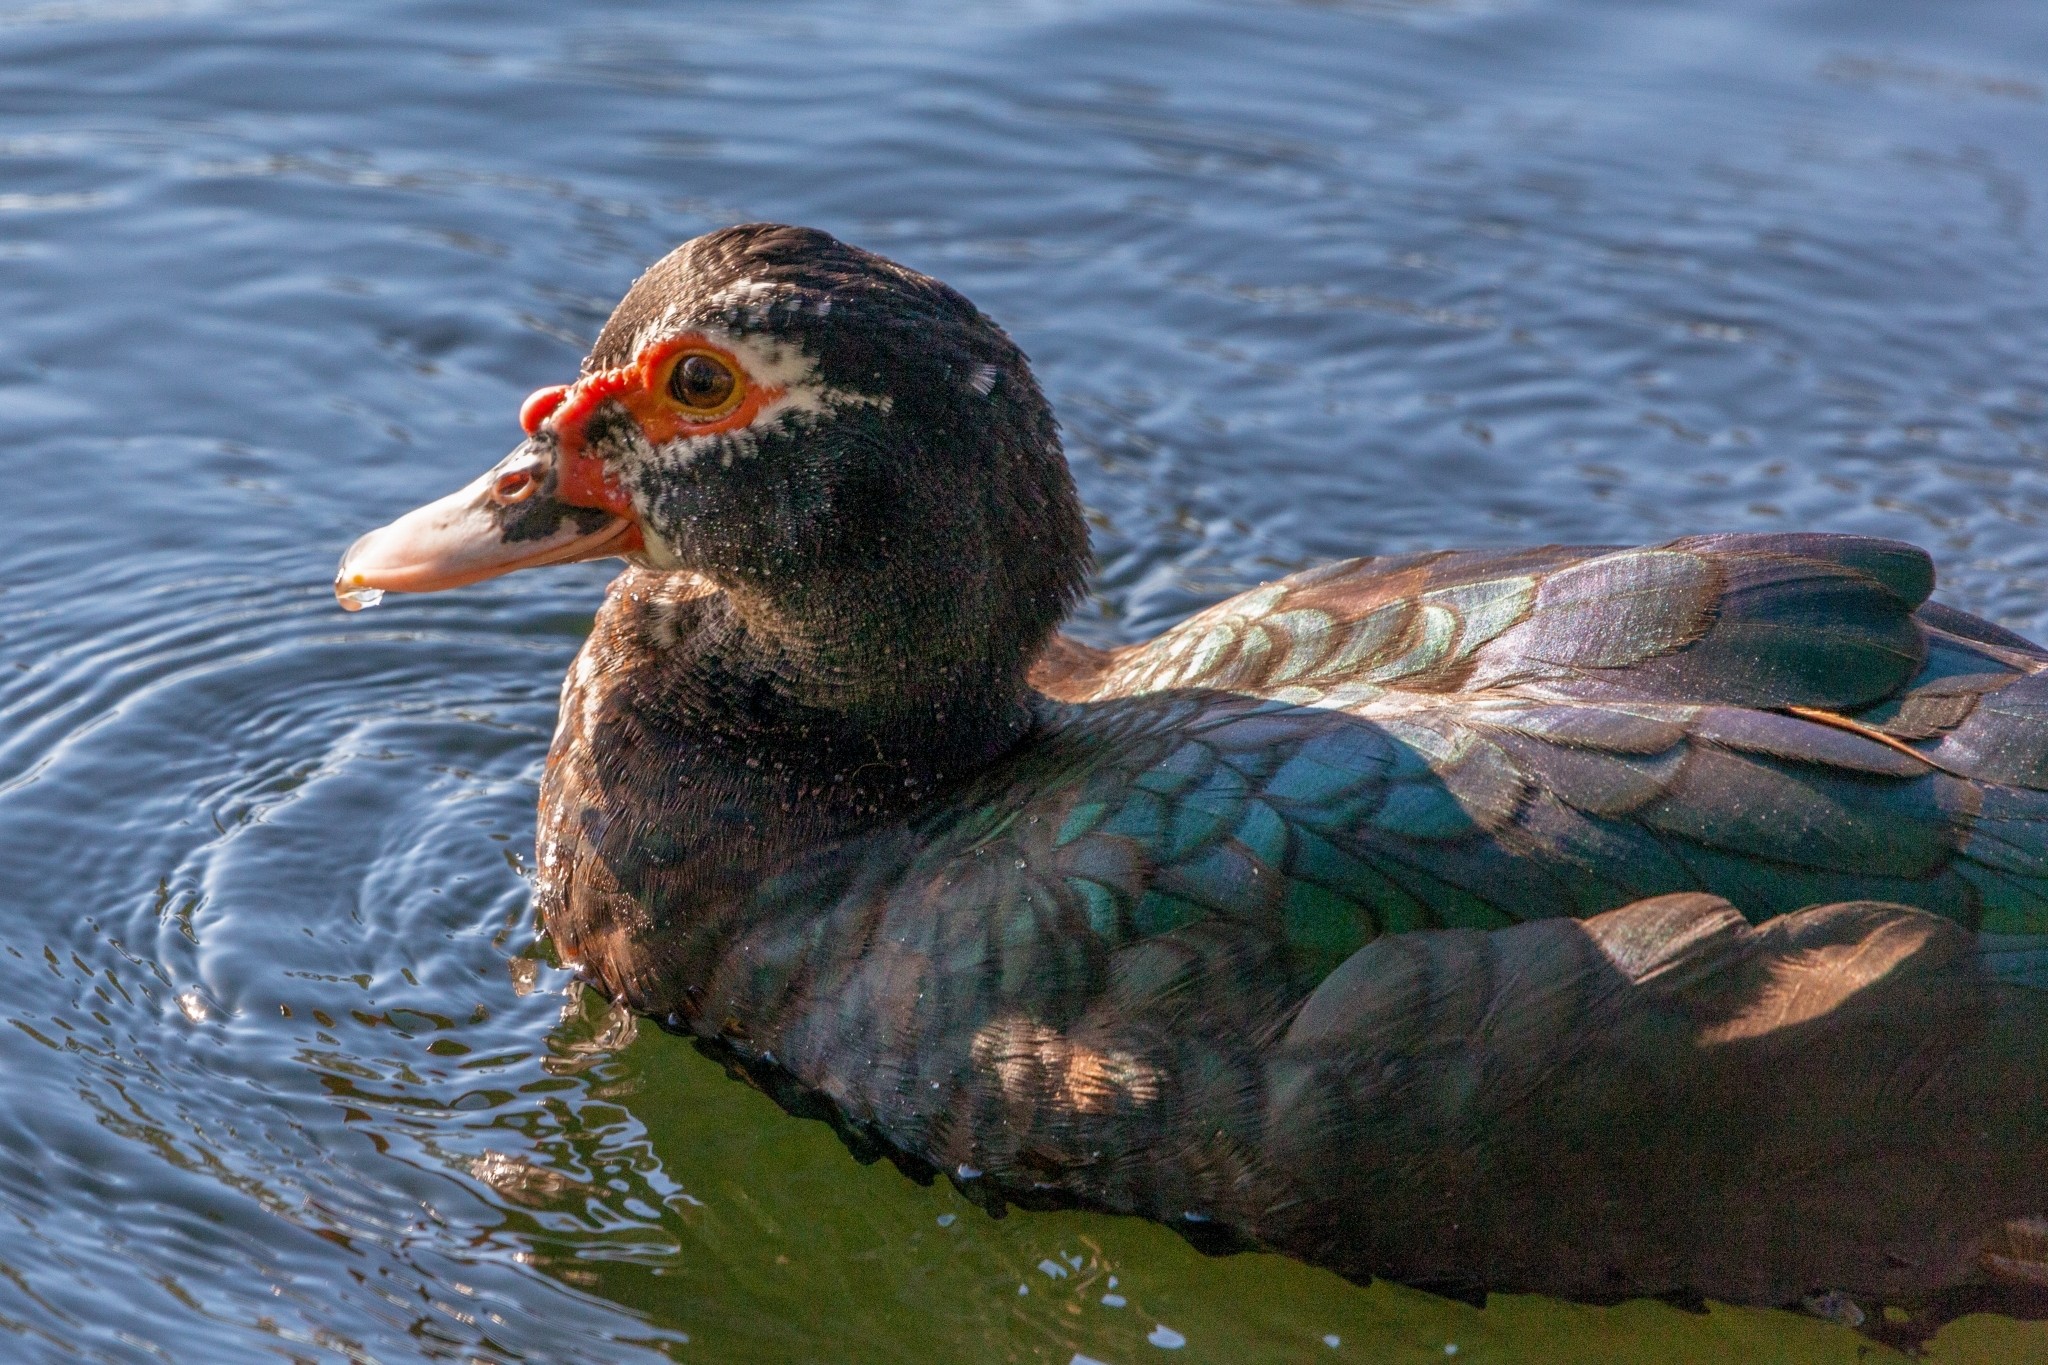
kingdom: Animalia
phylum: Chordata
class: Aves
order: Anseriformes
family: Anatidae
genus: Cairina
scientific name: Cairina moschata
